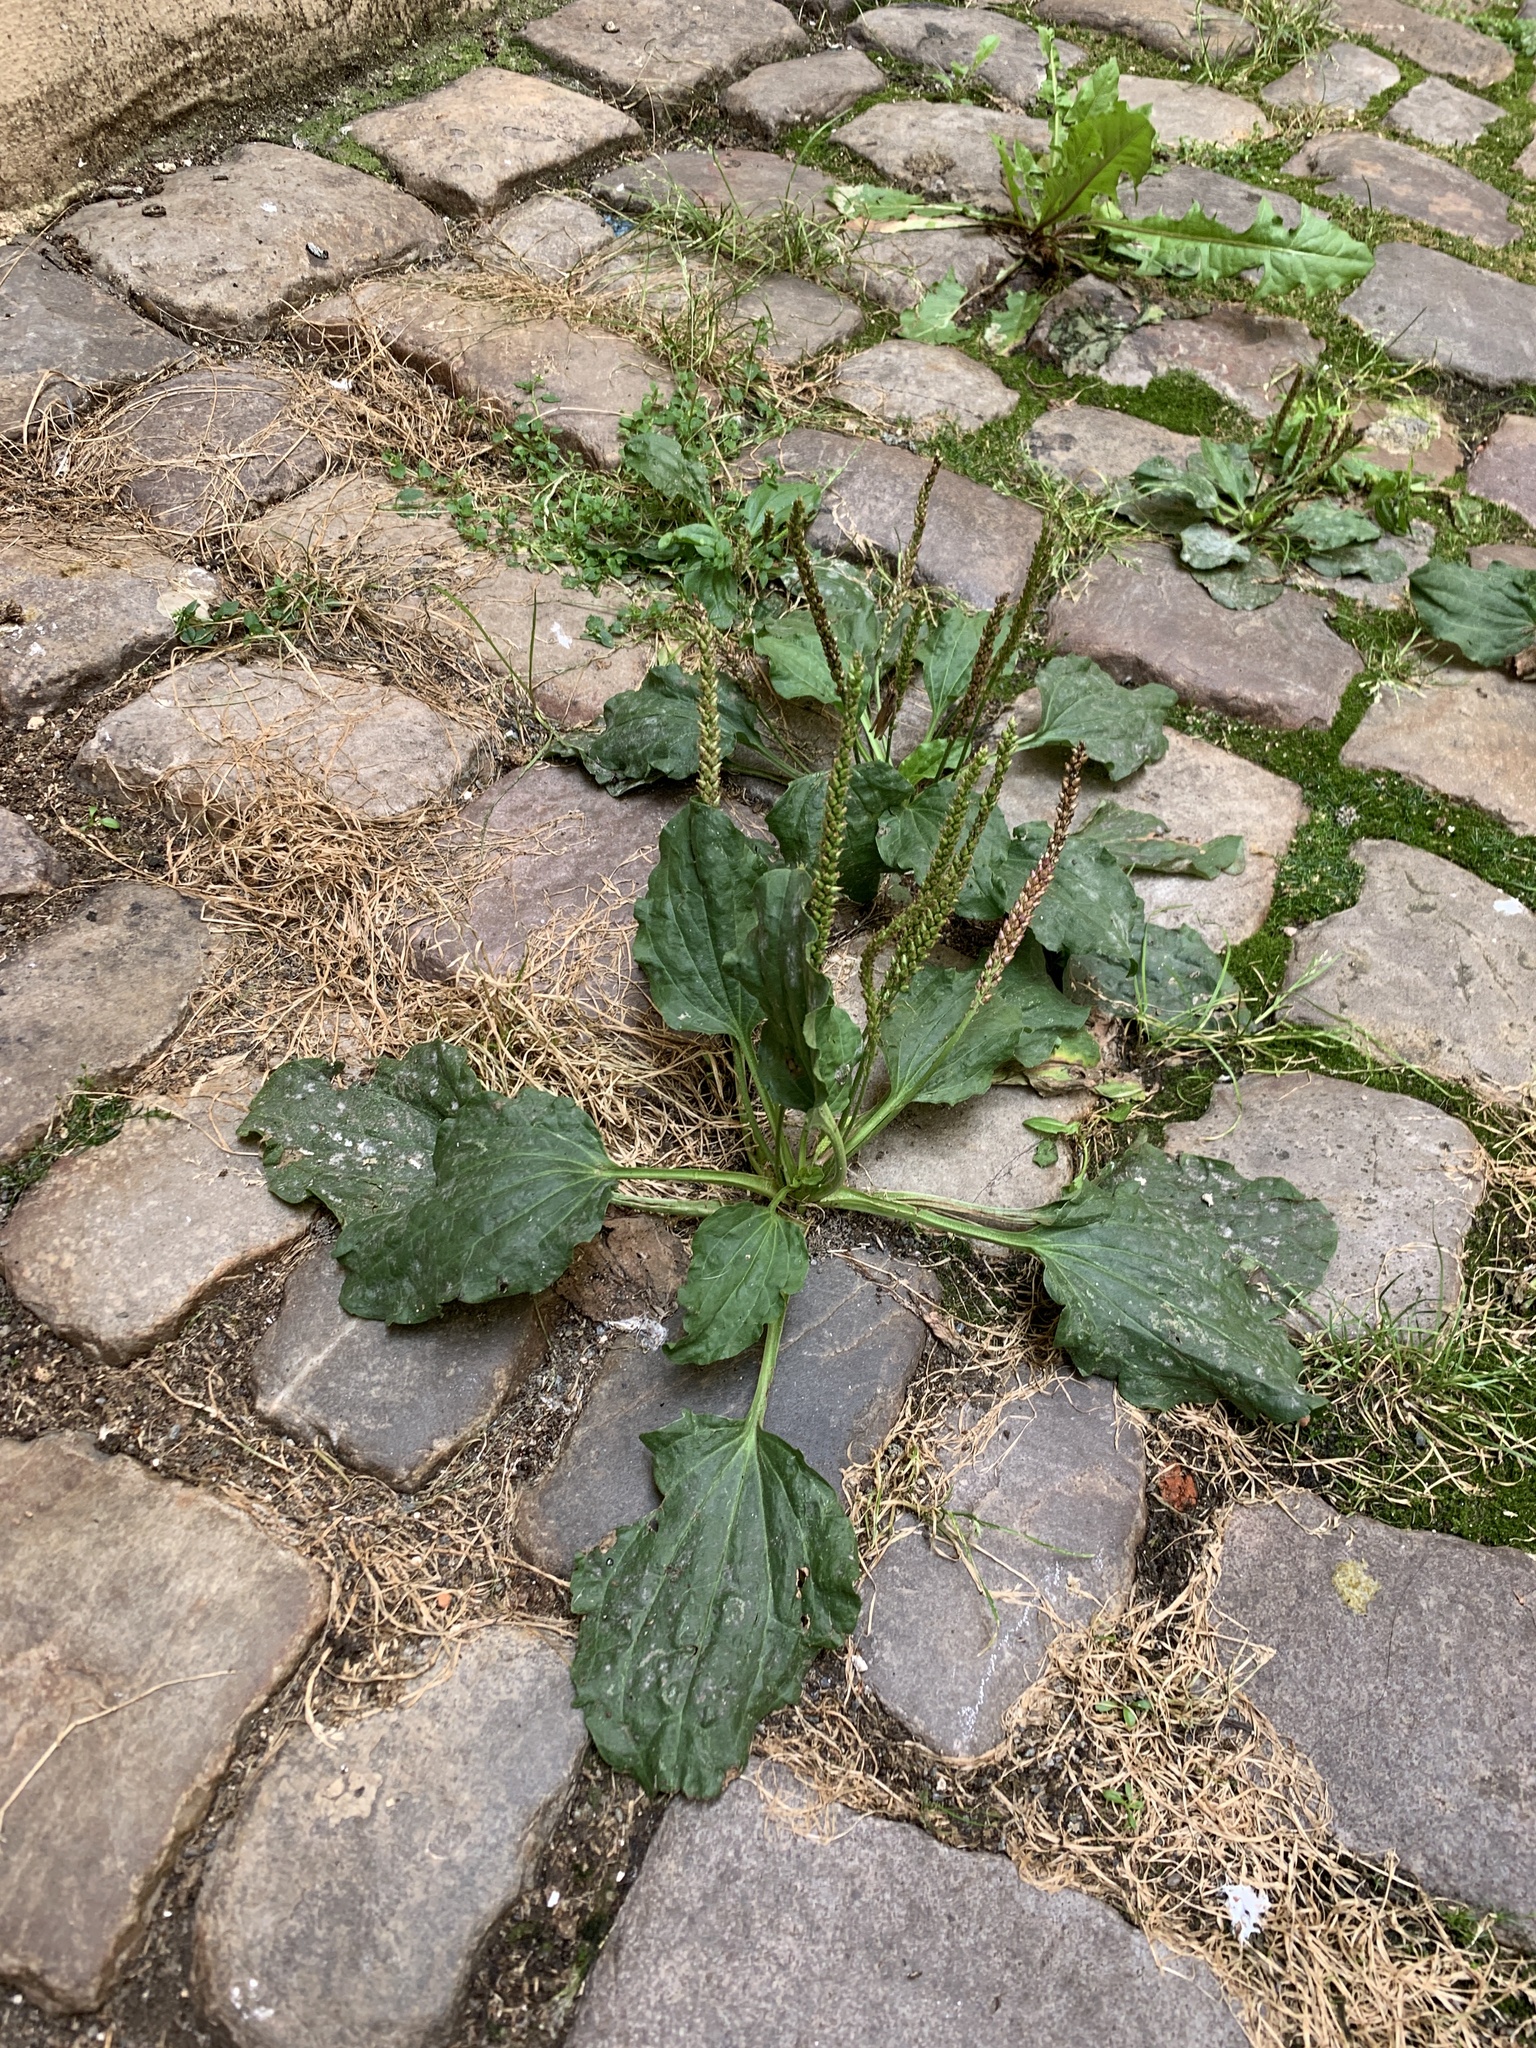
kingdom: Plantae
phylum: Tracheophyta
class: Magnoliopsida
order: Lamiales
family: Plantaginaceae
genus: Plantago
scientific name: Plantago major
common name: Common plantain
